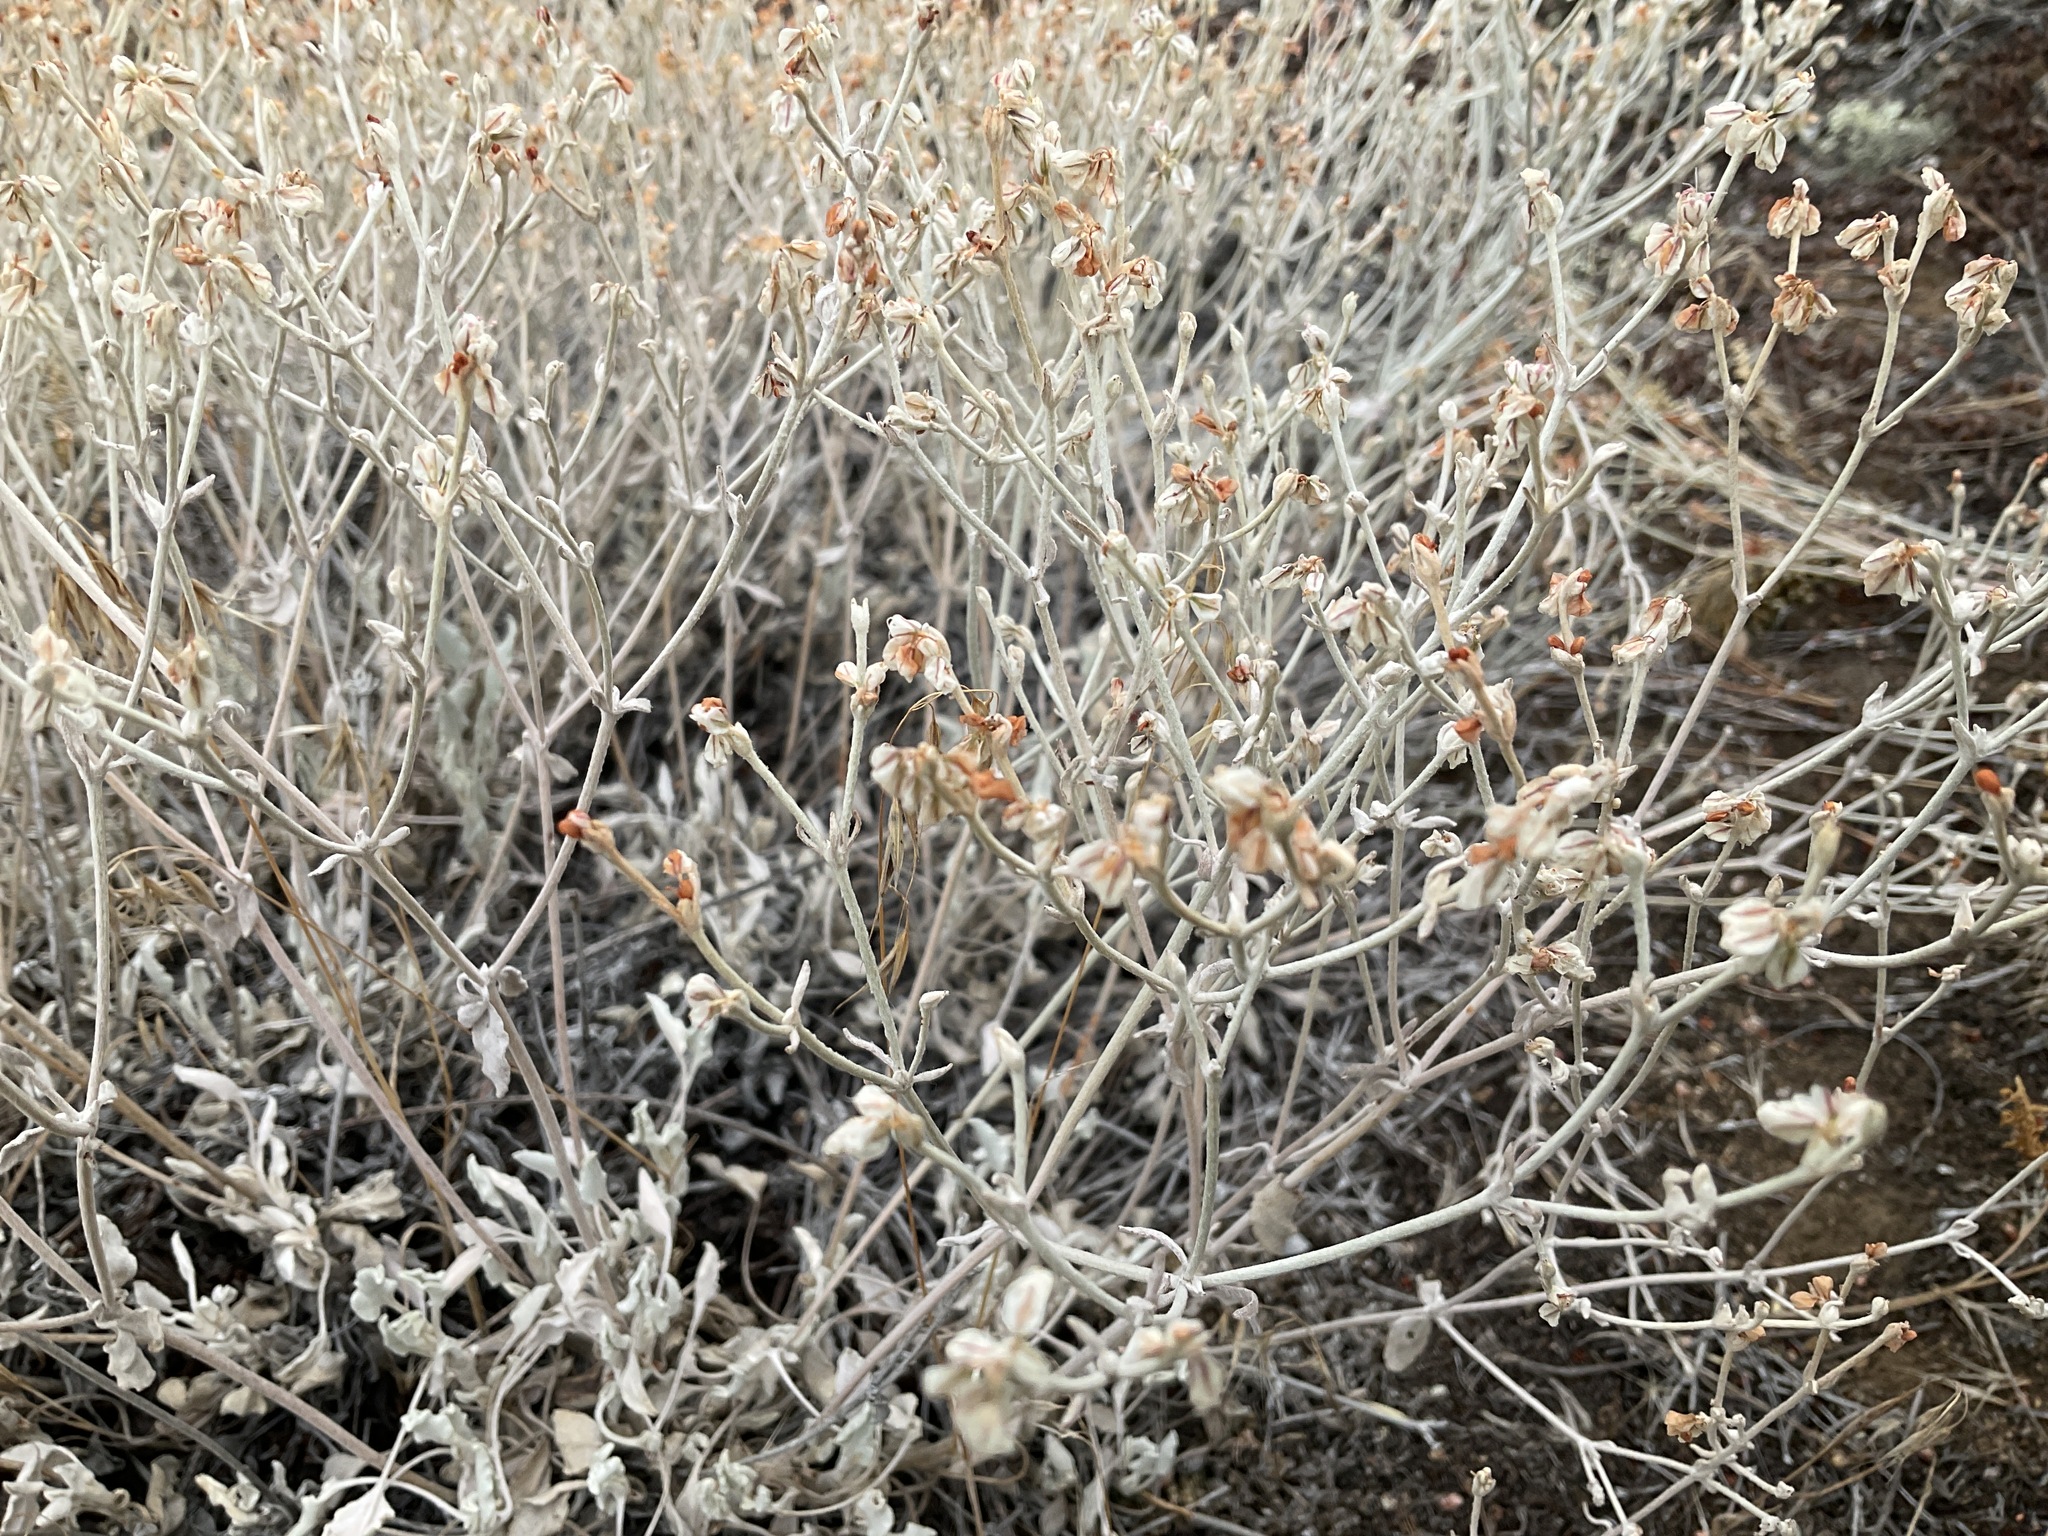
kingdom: Plantae
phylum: Tracheophyta
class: Magnoliopsida
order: Caryophyllales
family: Polygonaceae
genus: Eriogonum
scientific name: Eriogonum niveum
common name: Snow wild buckwheat
